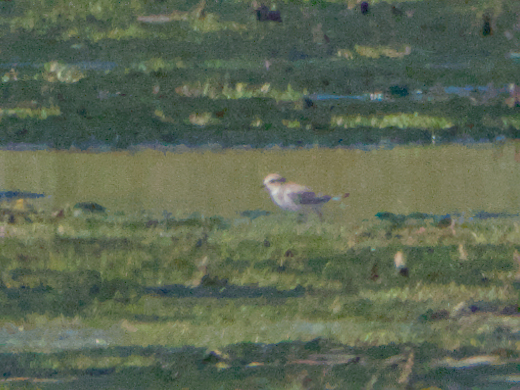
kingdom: Animalia
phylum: Chordata
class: Aves
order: Charadriiformes
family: Charadriidae
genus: Pluvialis
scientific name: Pluvialis squatarola
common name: Grey plover
